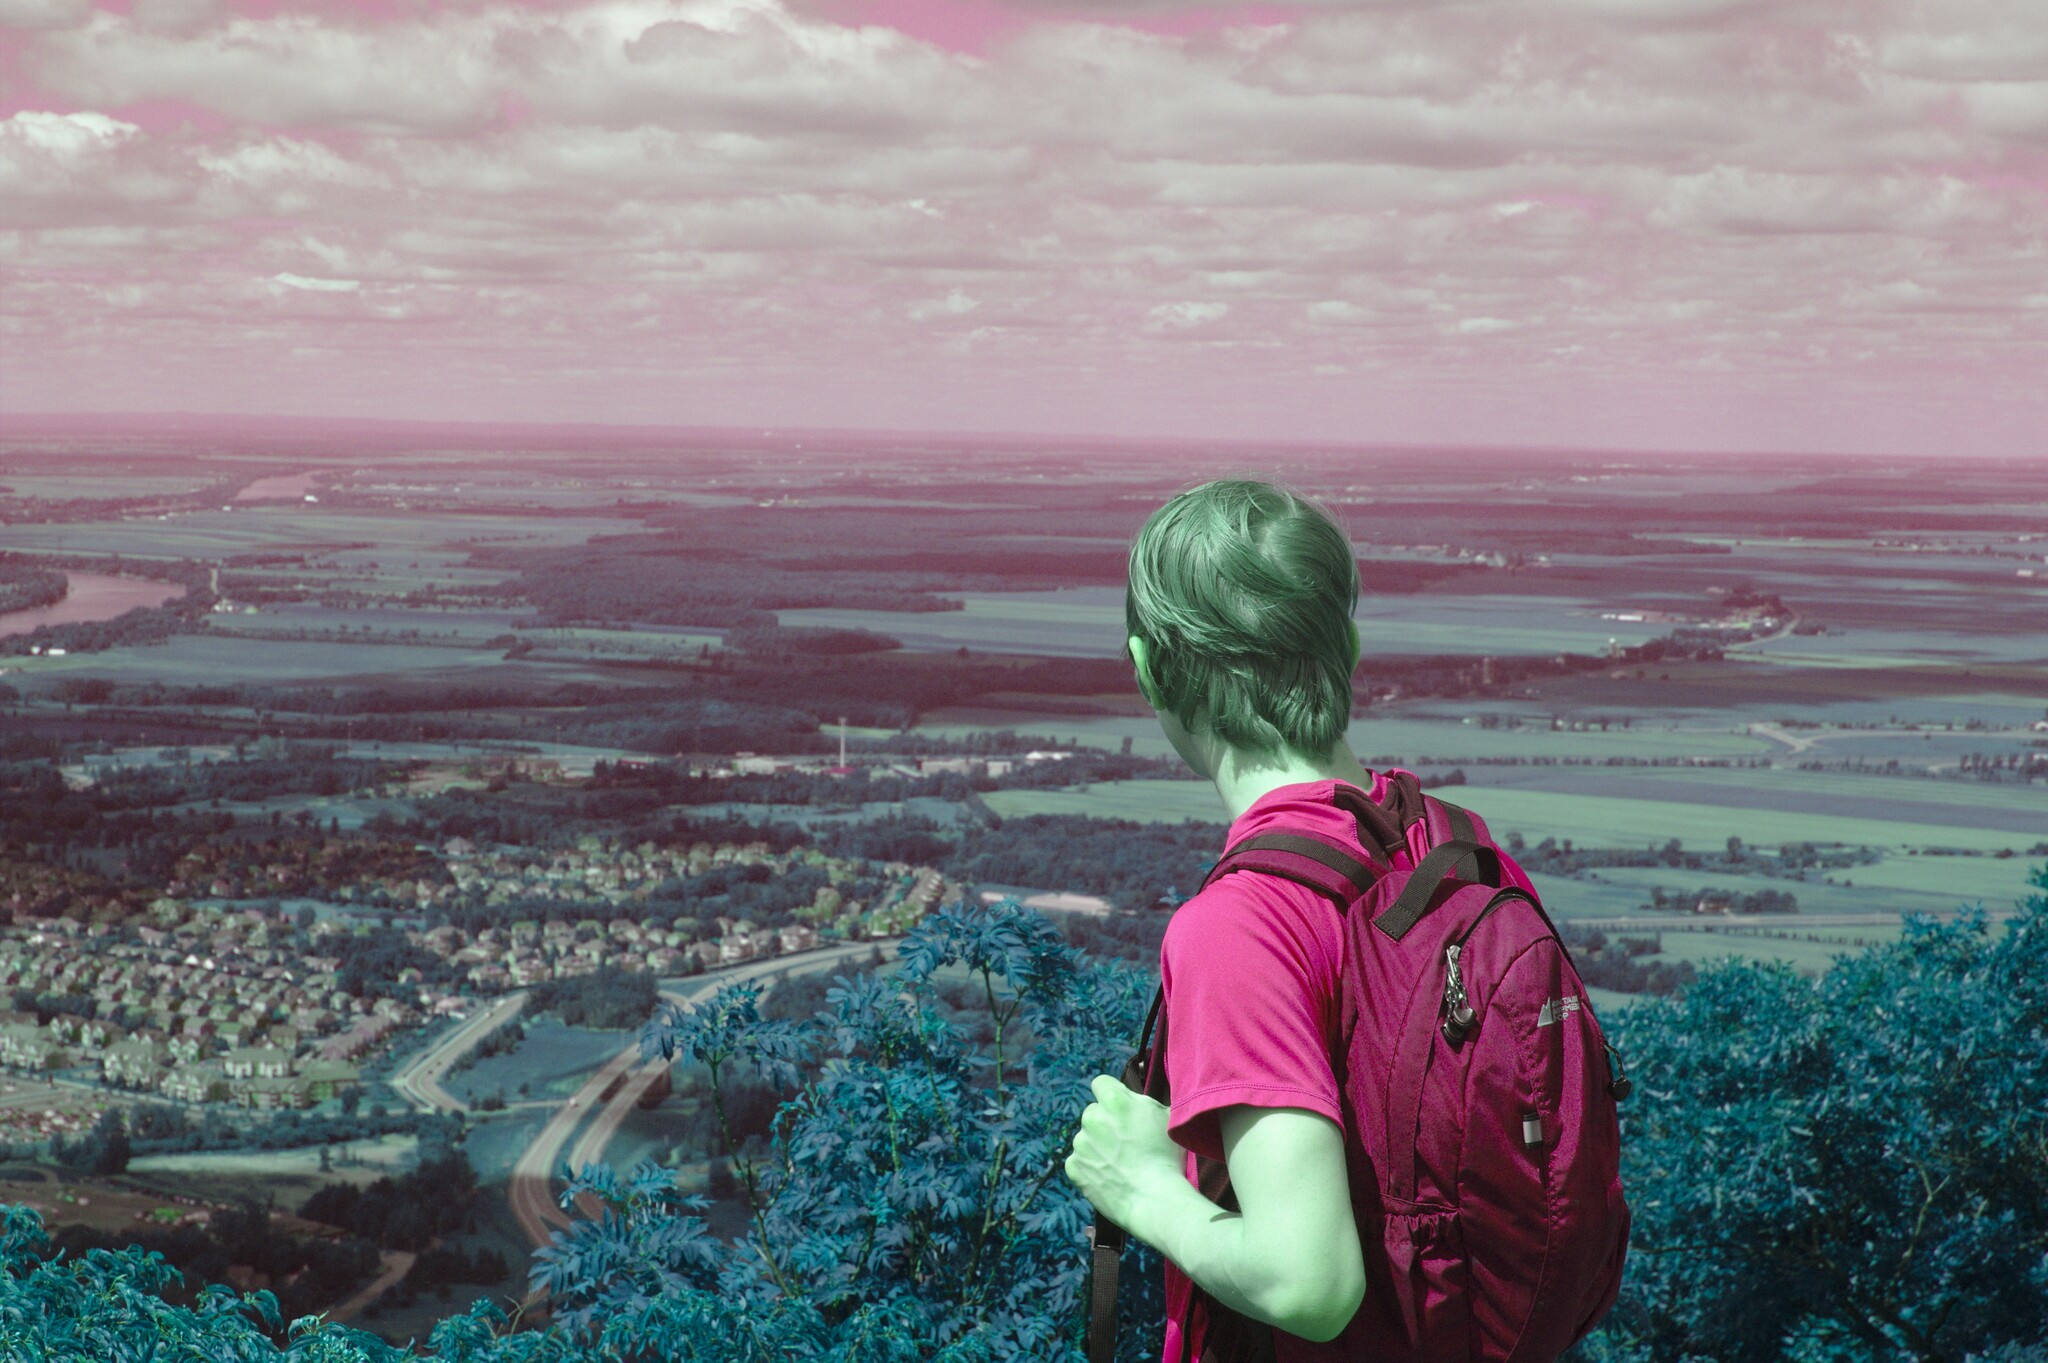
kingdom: Plantae
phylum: Tracheophyta
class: Magnoliopsida
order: Rosales
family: Rosaceae
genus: Sorbus
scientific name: Sorbus americana
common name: American mountain-ash
